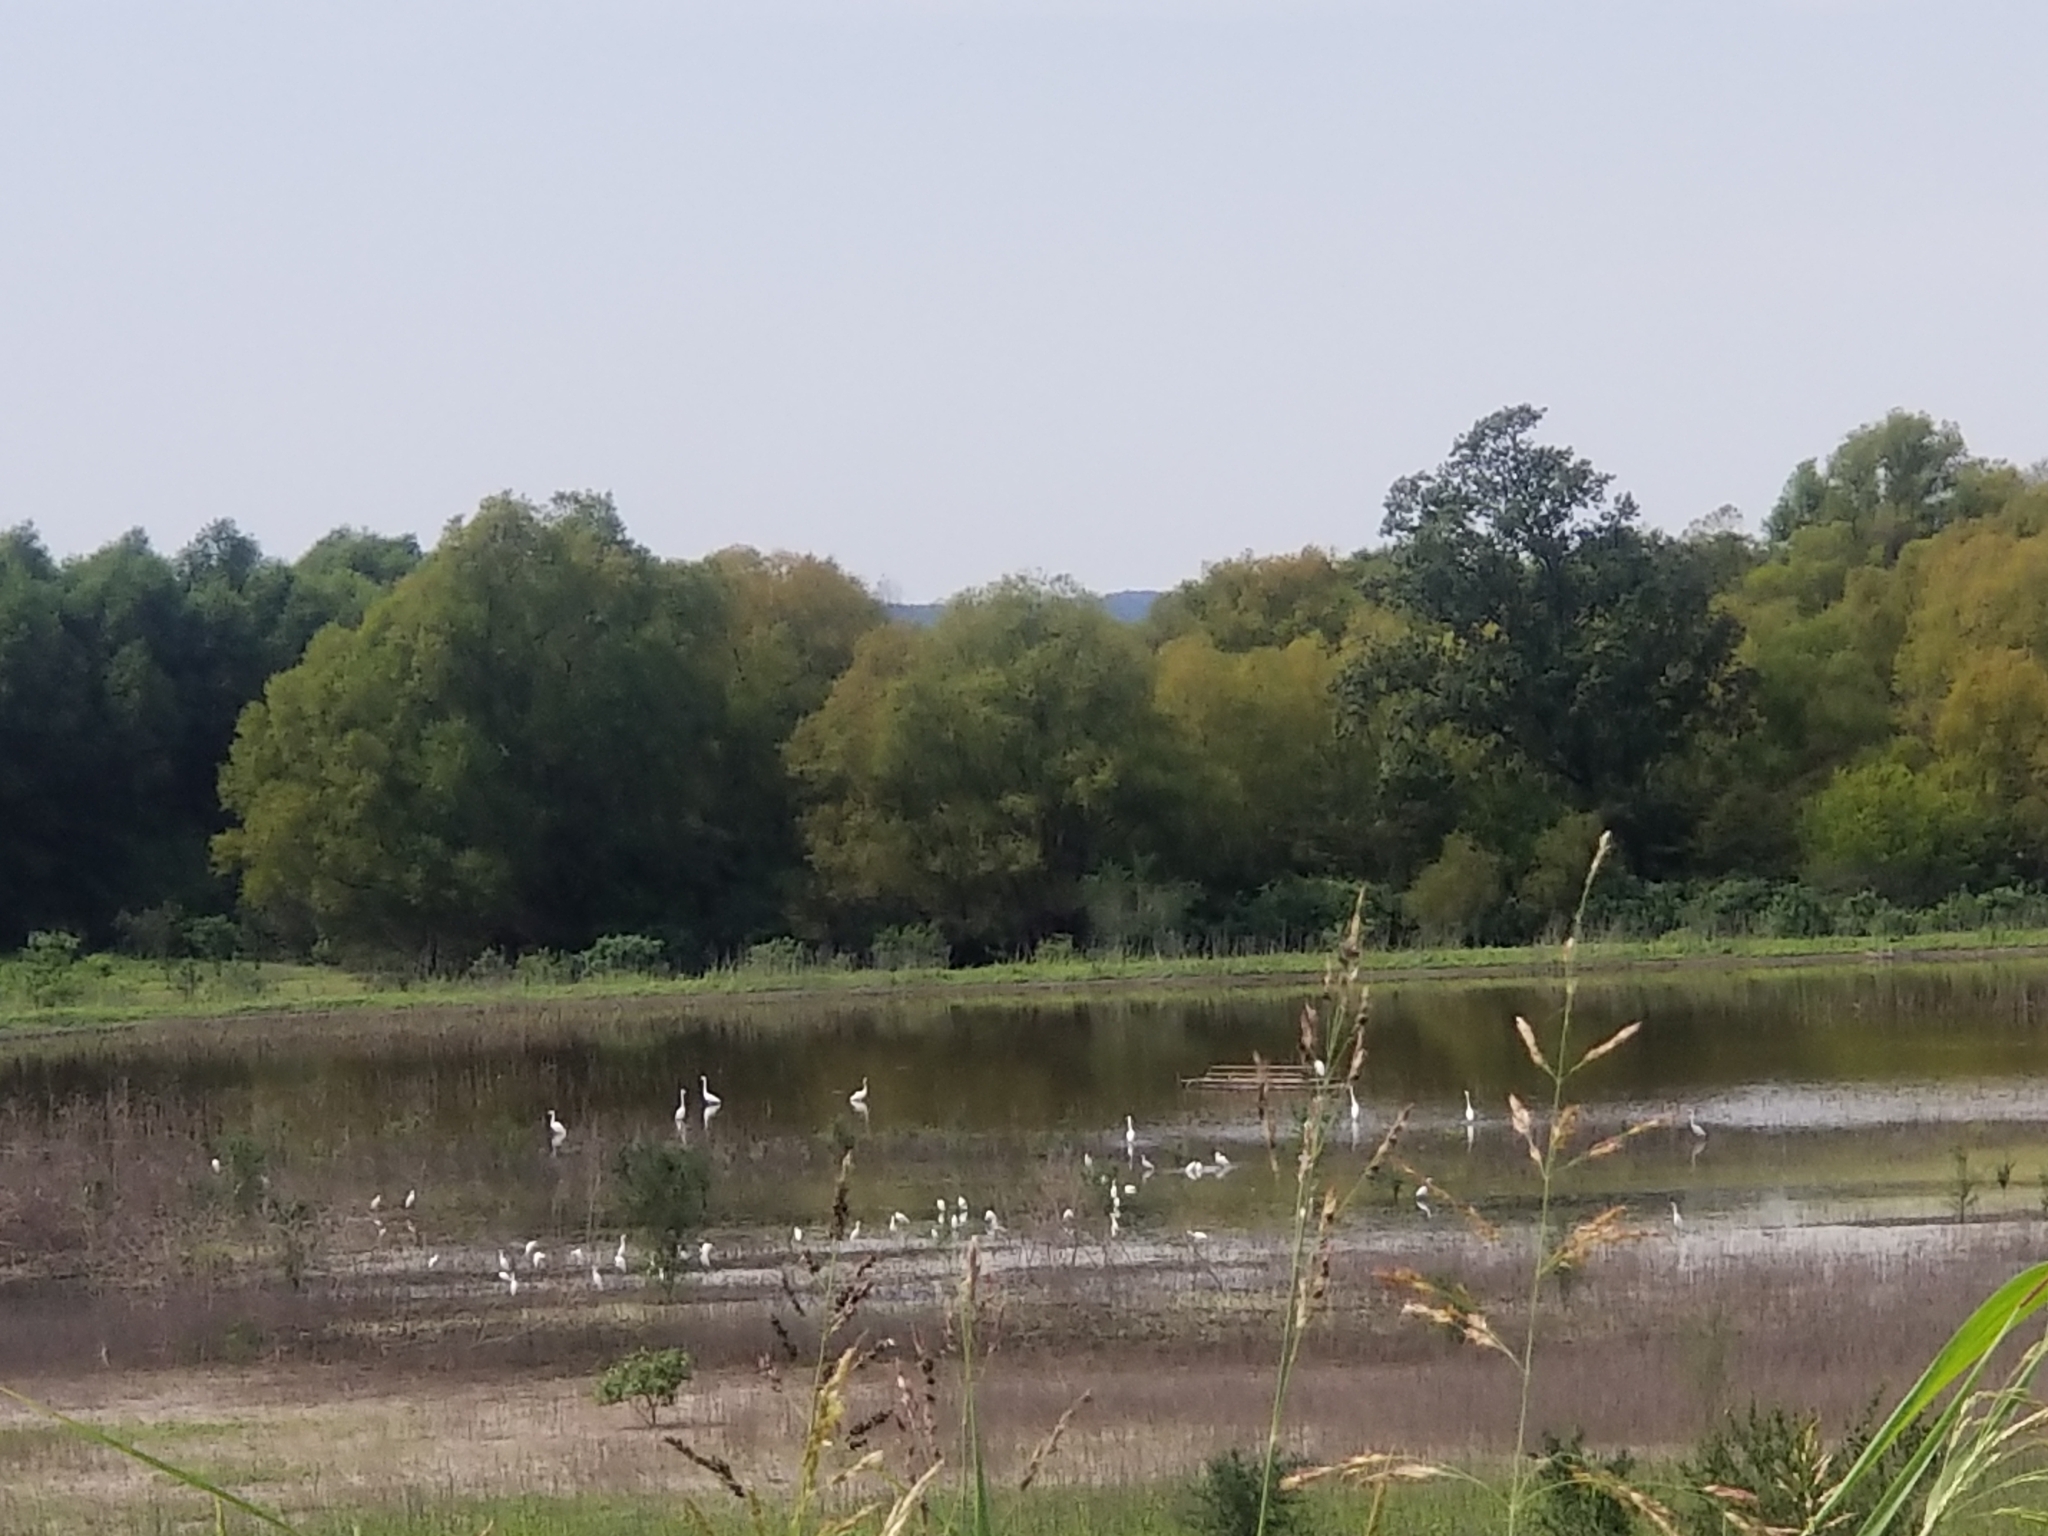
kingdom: Animalia
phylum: Chordata
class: Aves
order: Pelecaniformes
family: Ardeidae
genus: Ardea
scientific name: Ardea alba
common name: Great egret
